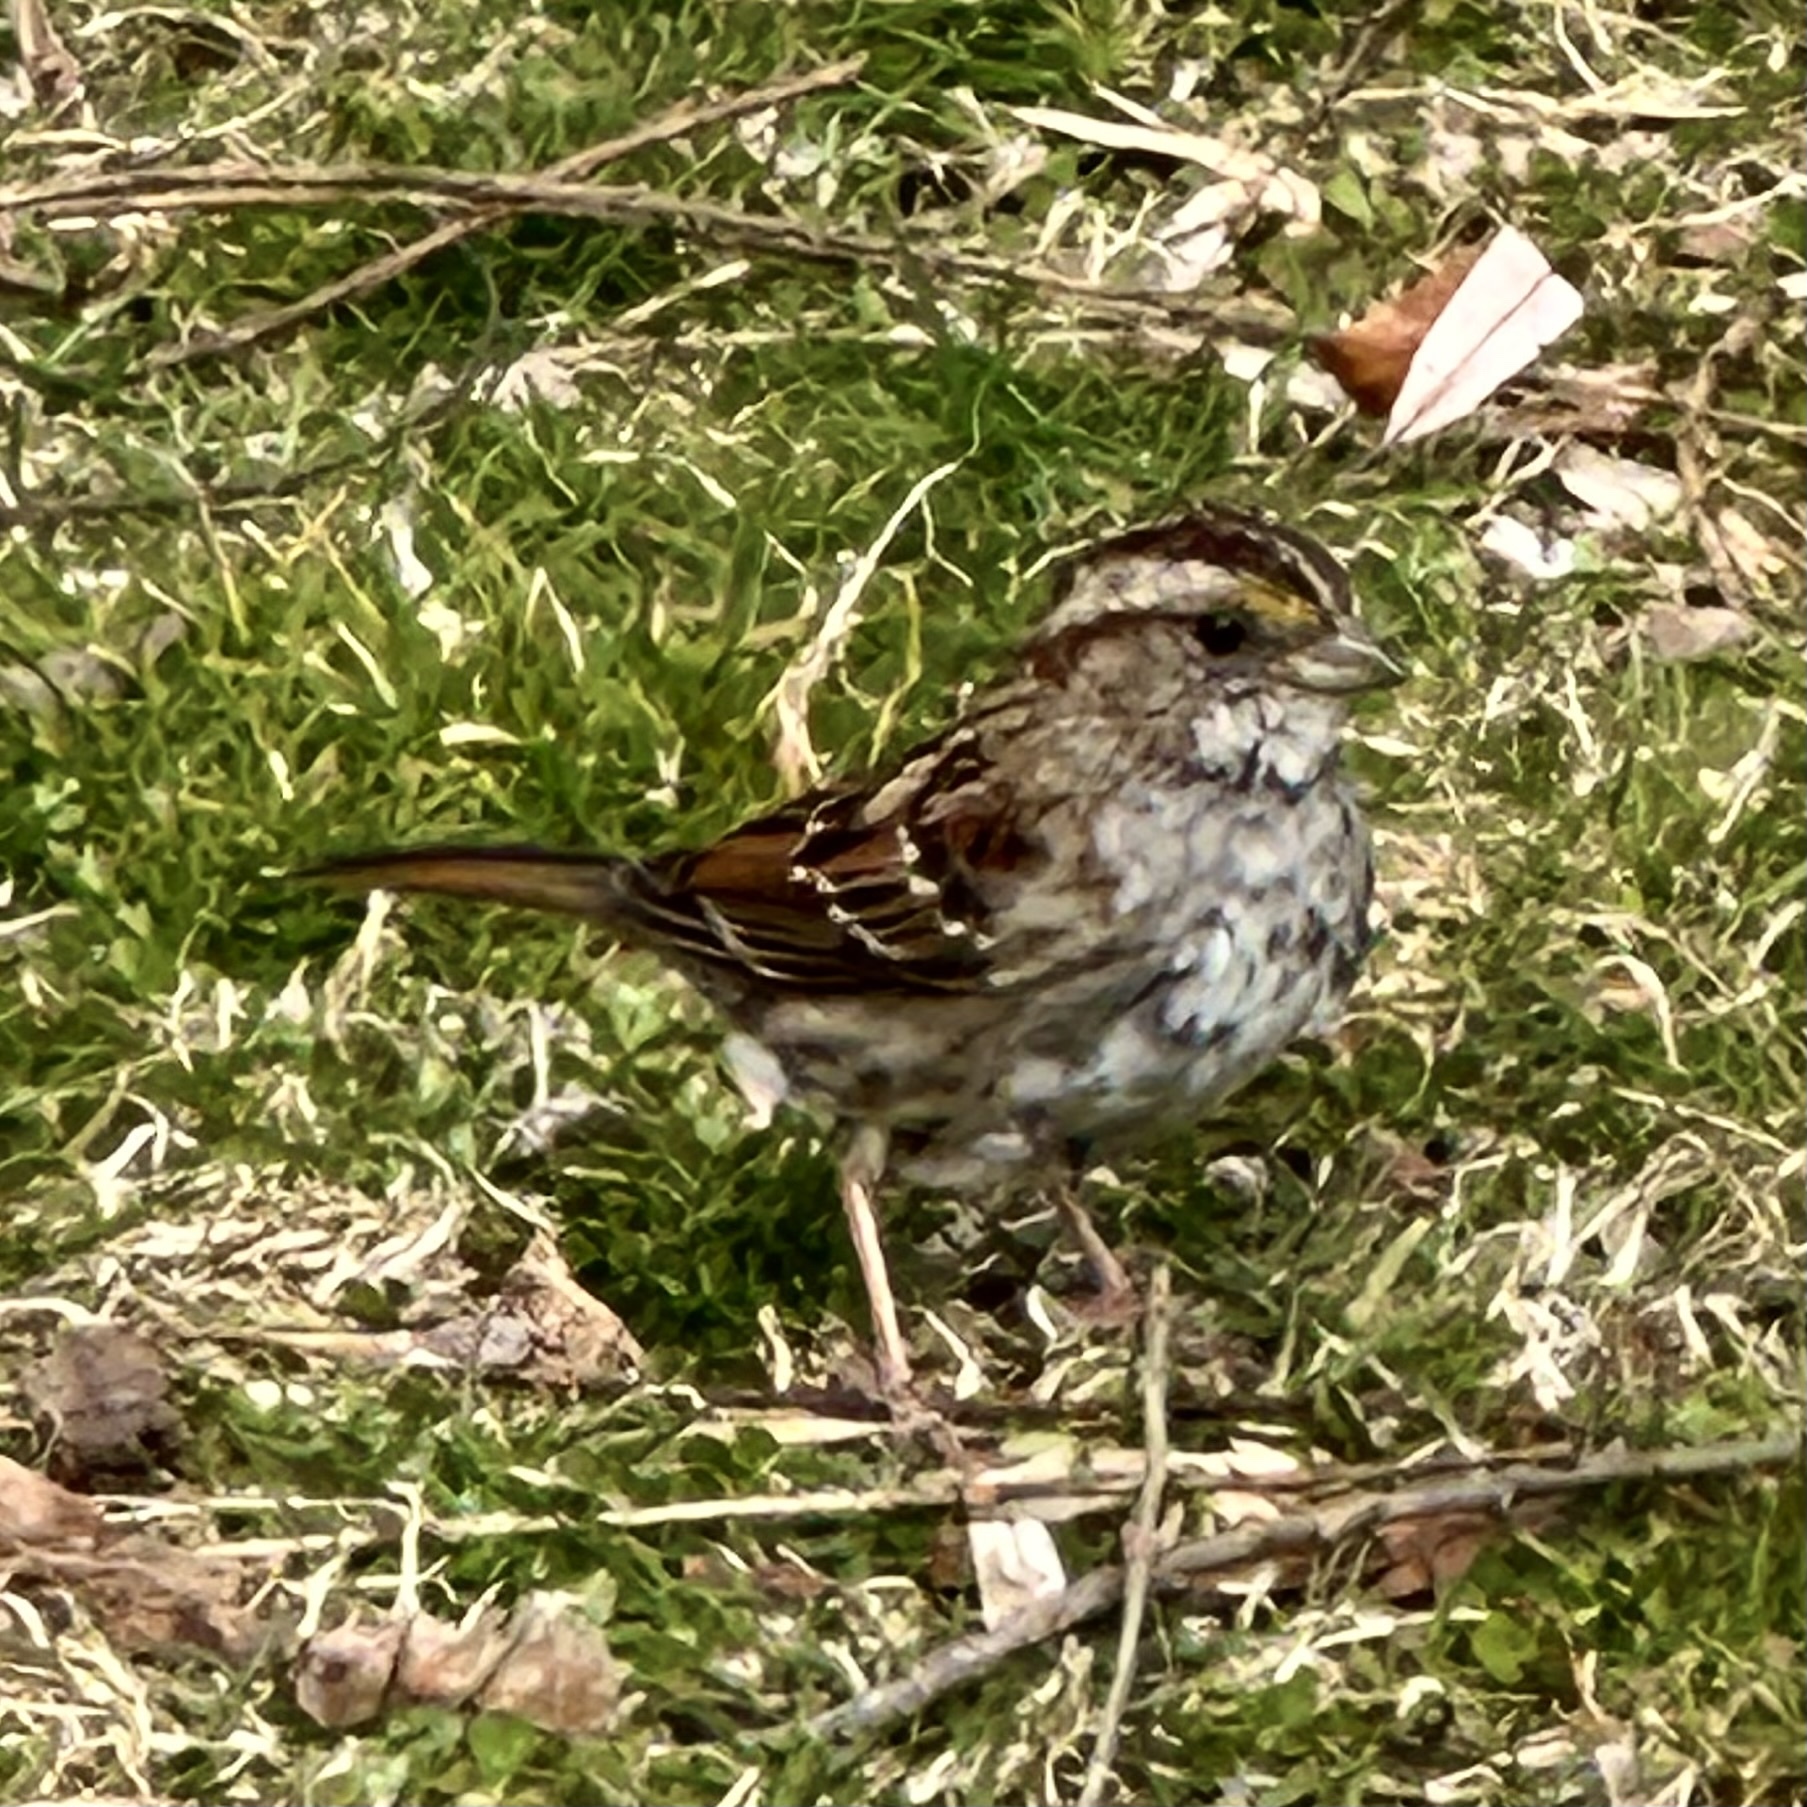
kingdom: Animalia
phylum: Chordata
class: Aves
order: Passeriformes
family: Passerellidae
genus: Zonotrichia
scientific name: Zonotrichia albicollis
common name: White-throated sparrow
